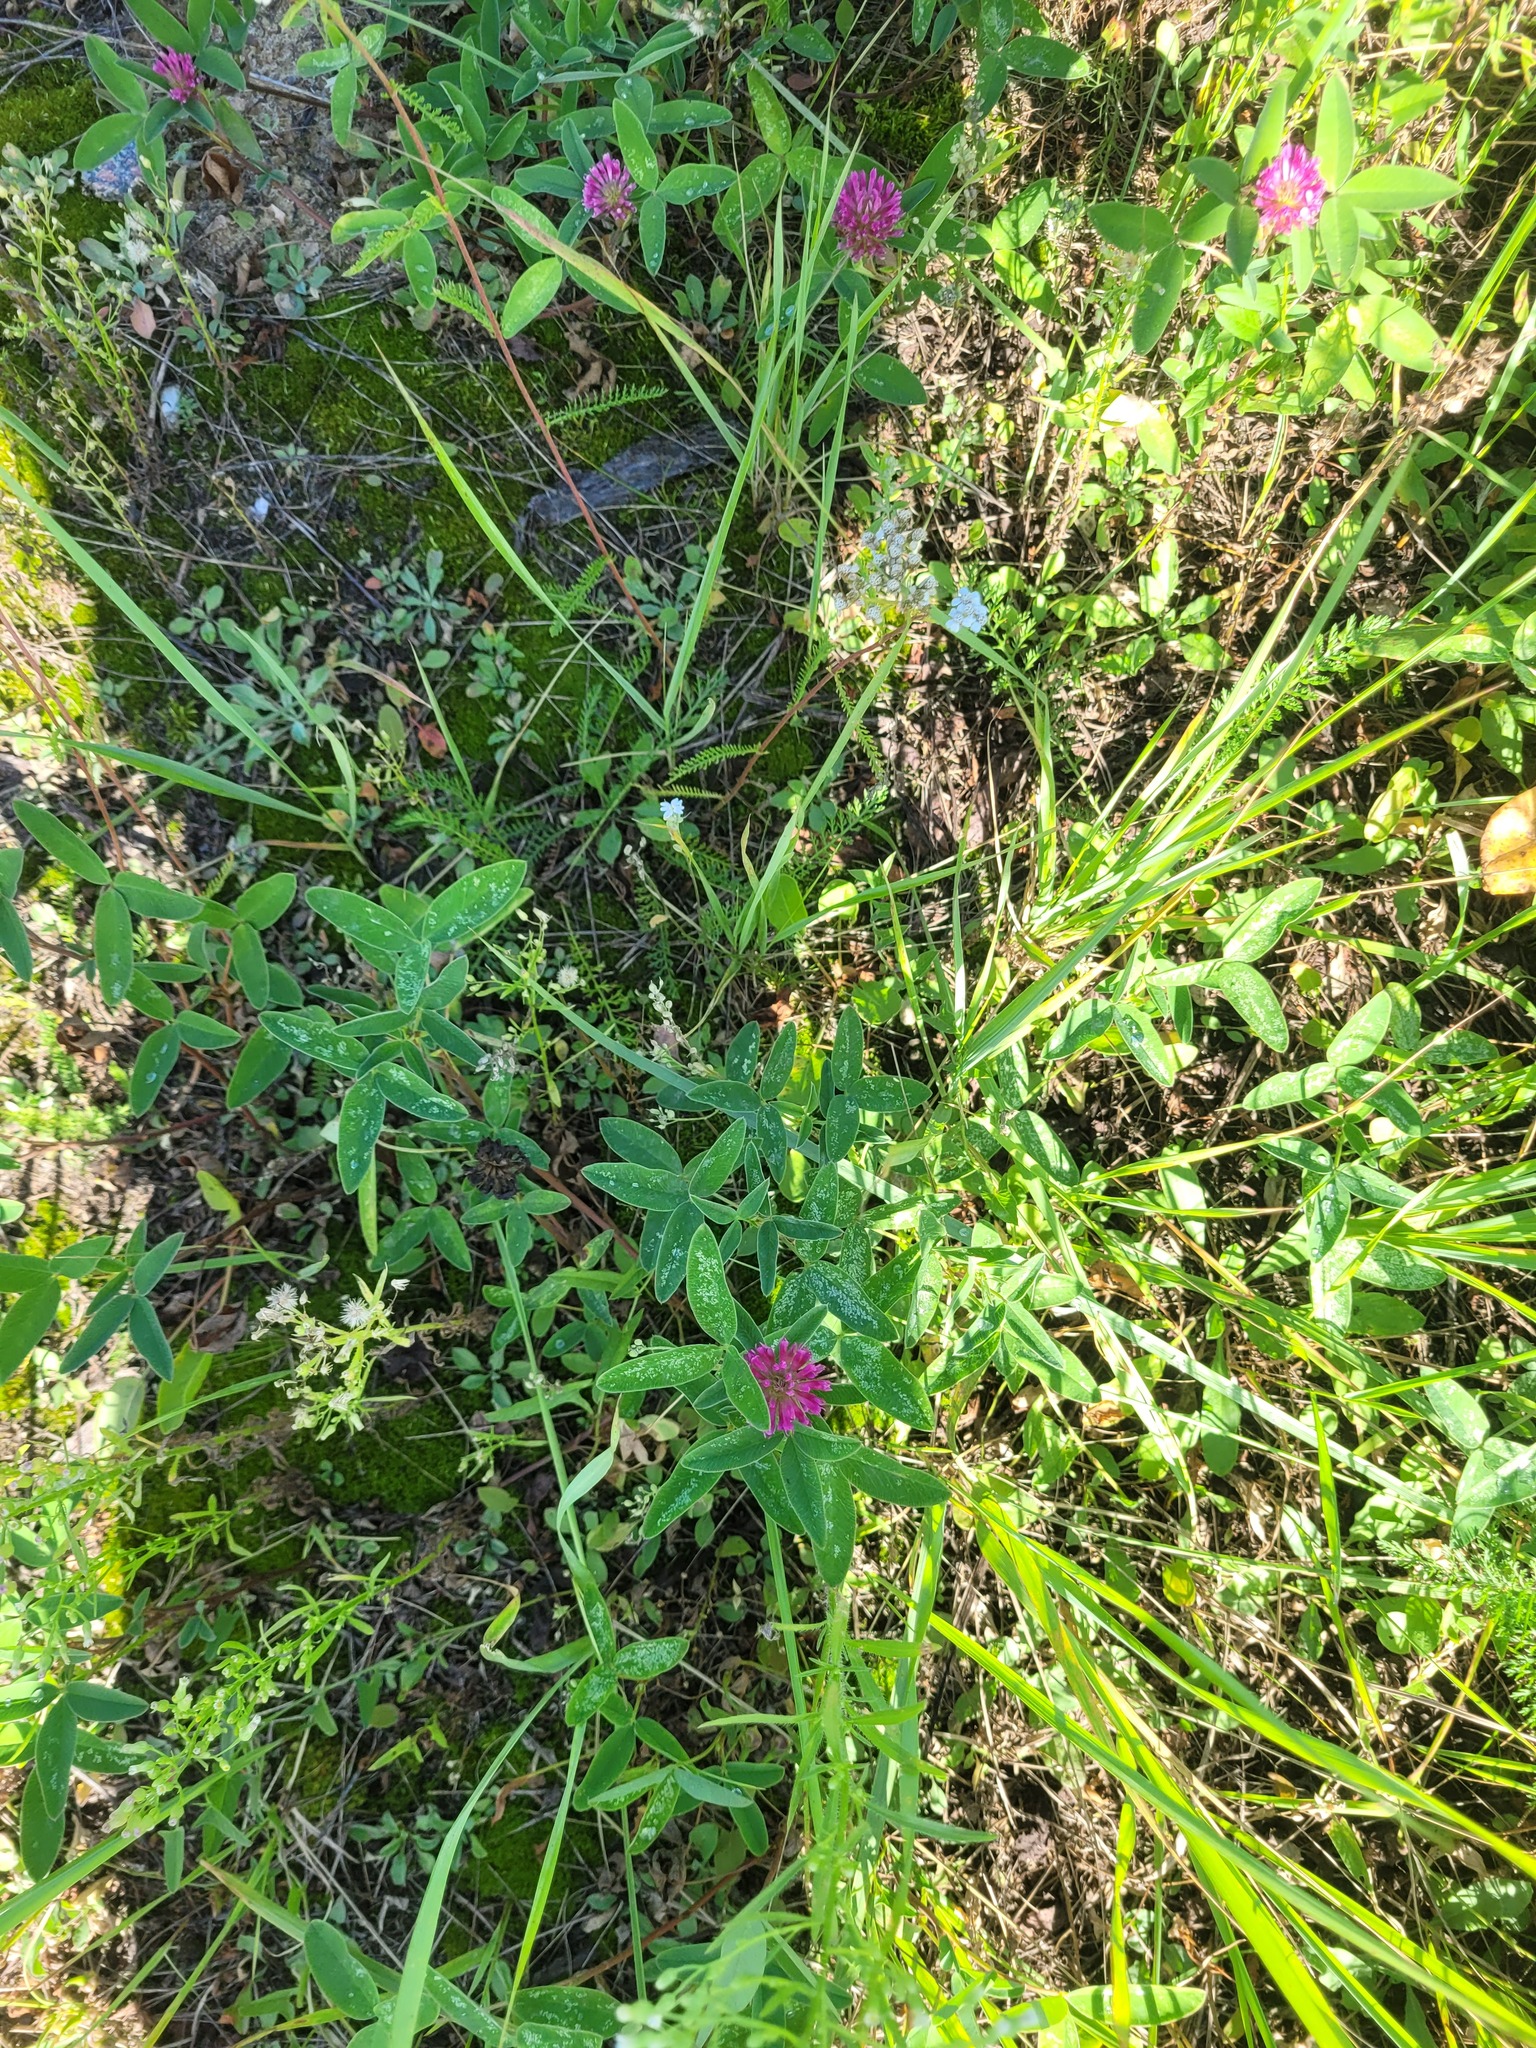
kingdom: Plantae
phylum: Tracheophyta
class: Magnoliopsida
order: Fabales
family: Fabaceae
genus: Trifolium
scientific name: Trifolium medium
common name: Zigzag clover
